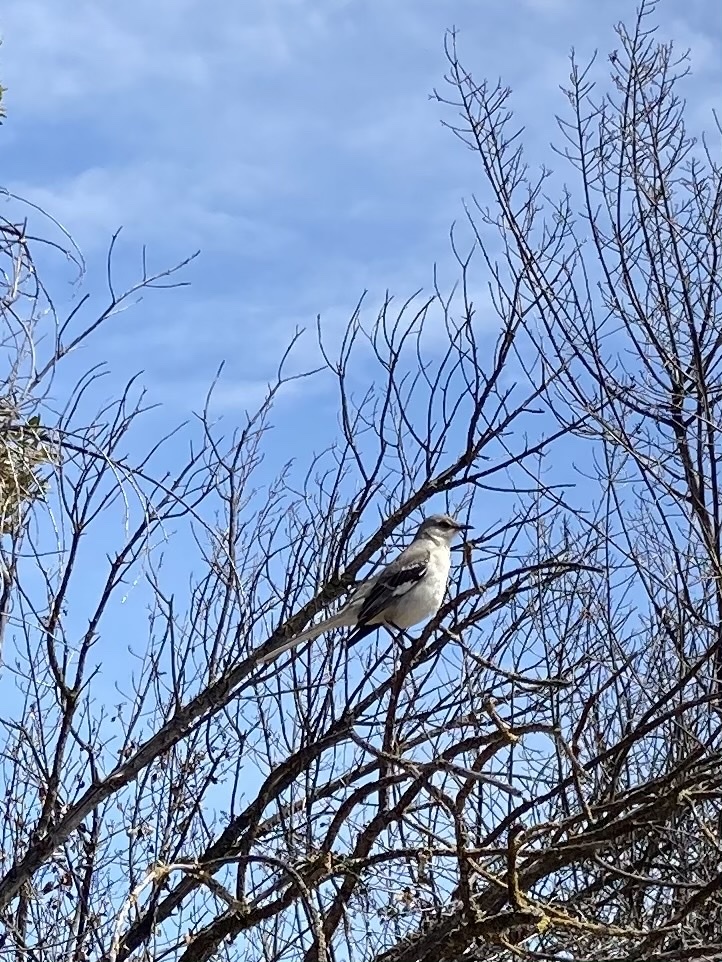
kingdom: Animalia
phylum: Chordata
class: Aves
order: Passeriformes
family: Mimidae
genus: Mimus
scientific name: Mimus polyglottos
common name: Northern mockingbird
